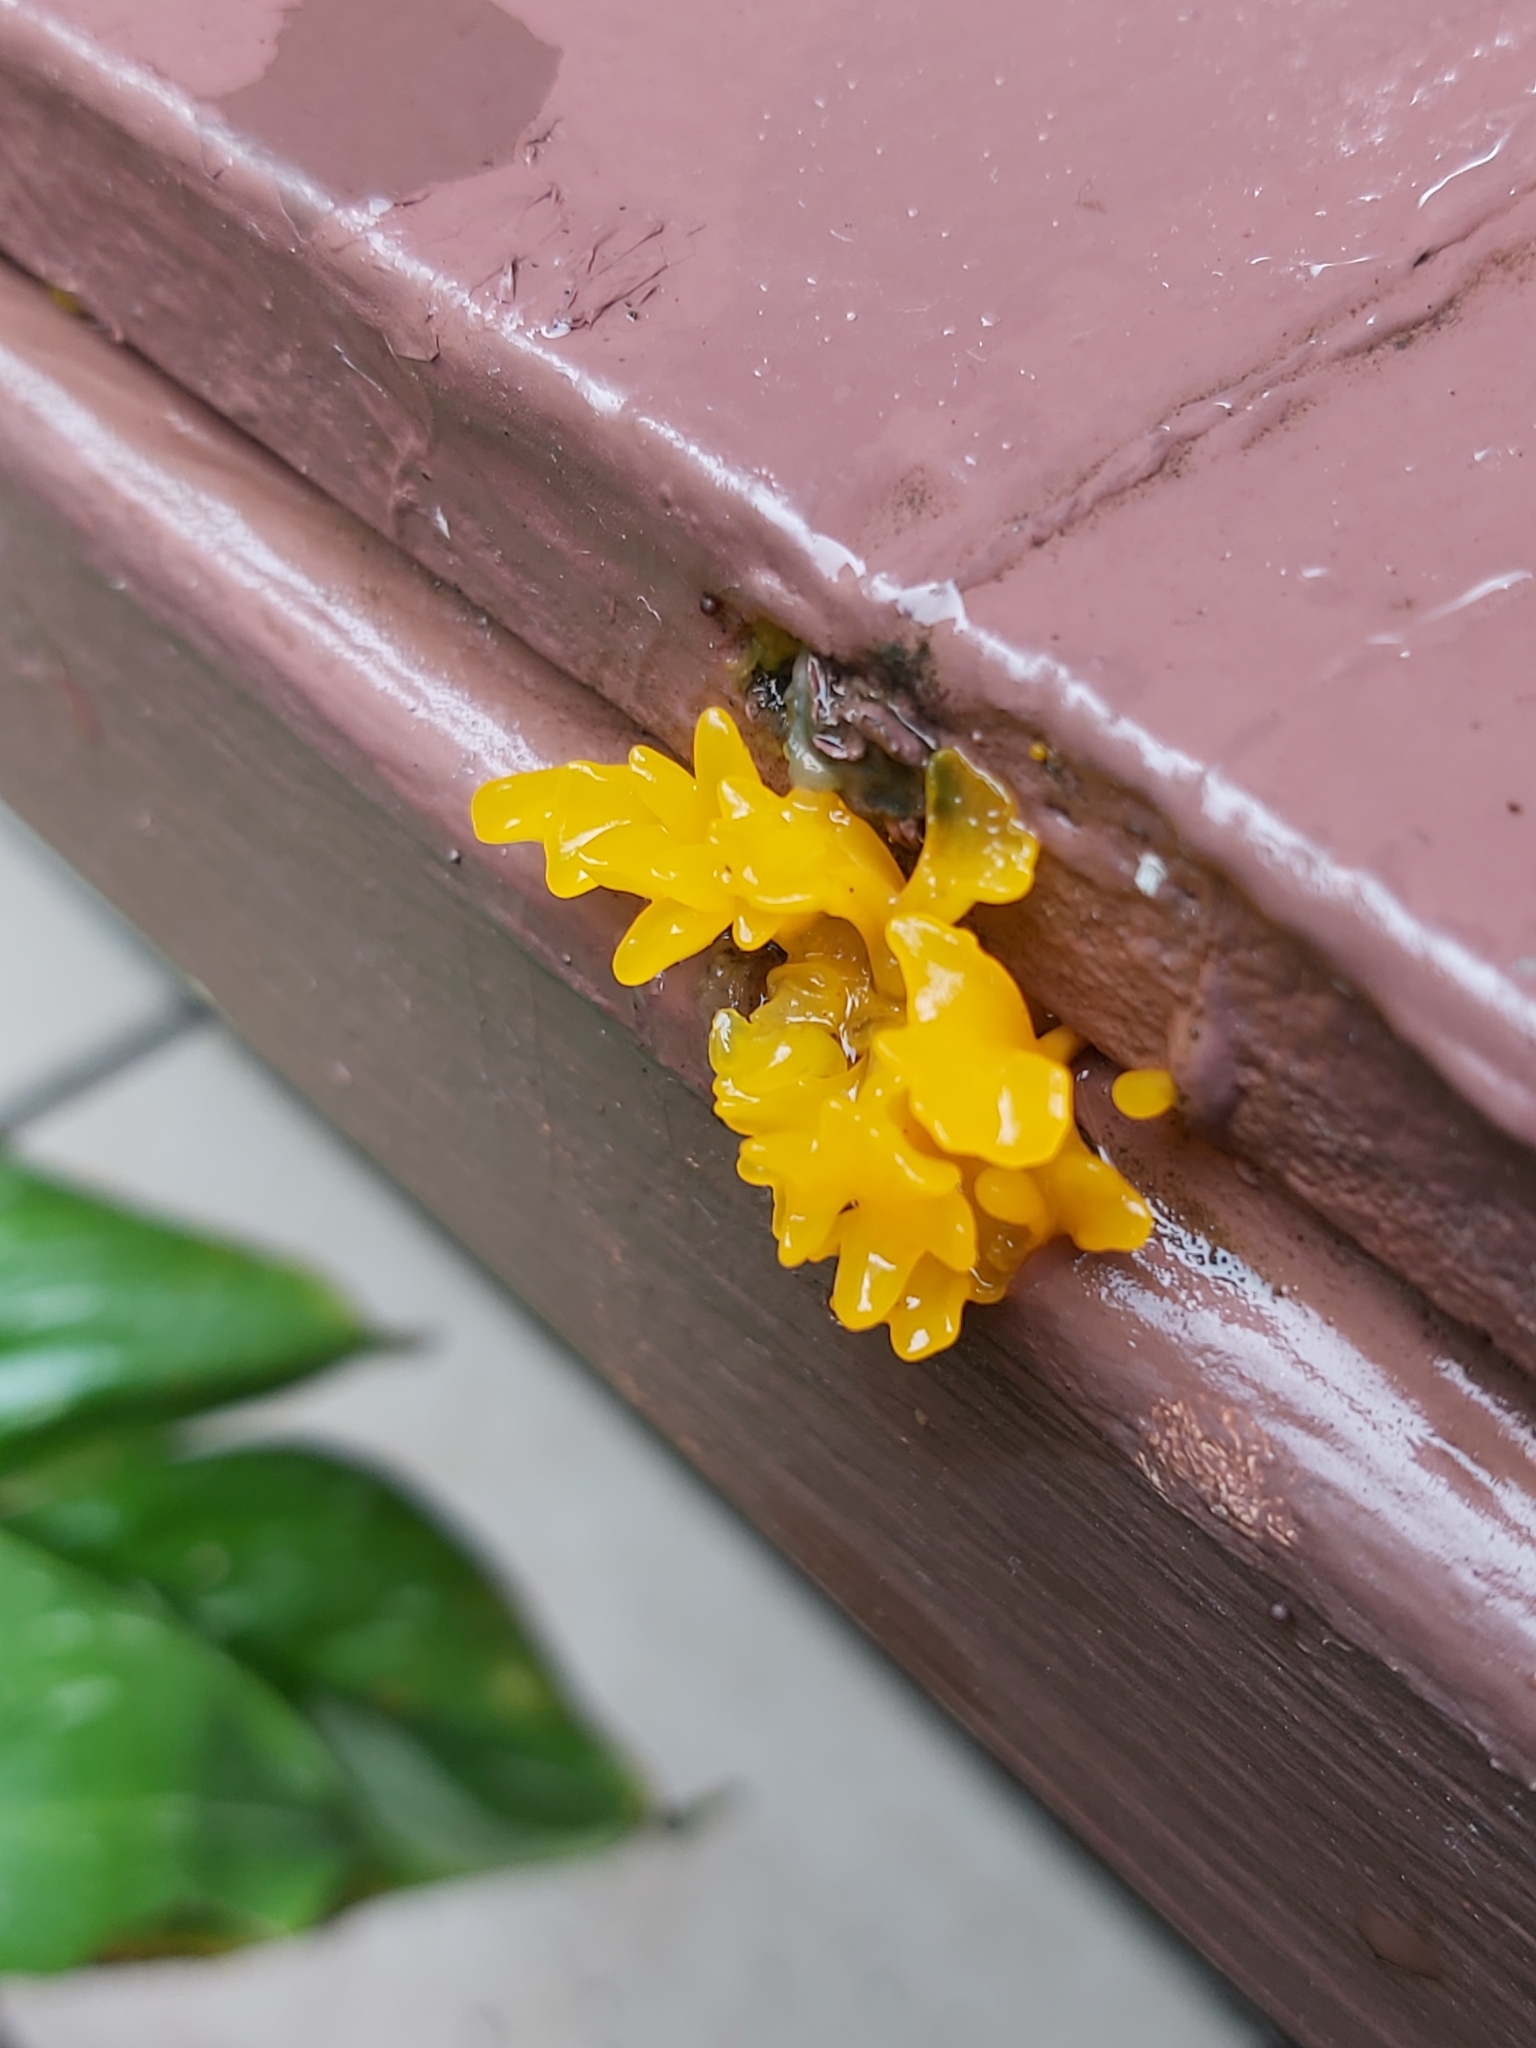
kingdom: Fungi
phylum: Basidiomycota
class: Dacrymycetes
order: Dacrymycetales
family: Dacrymycetaceae
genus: Dacrymyces
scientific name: Dacrymyces spathularius
